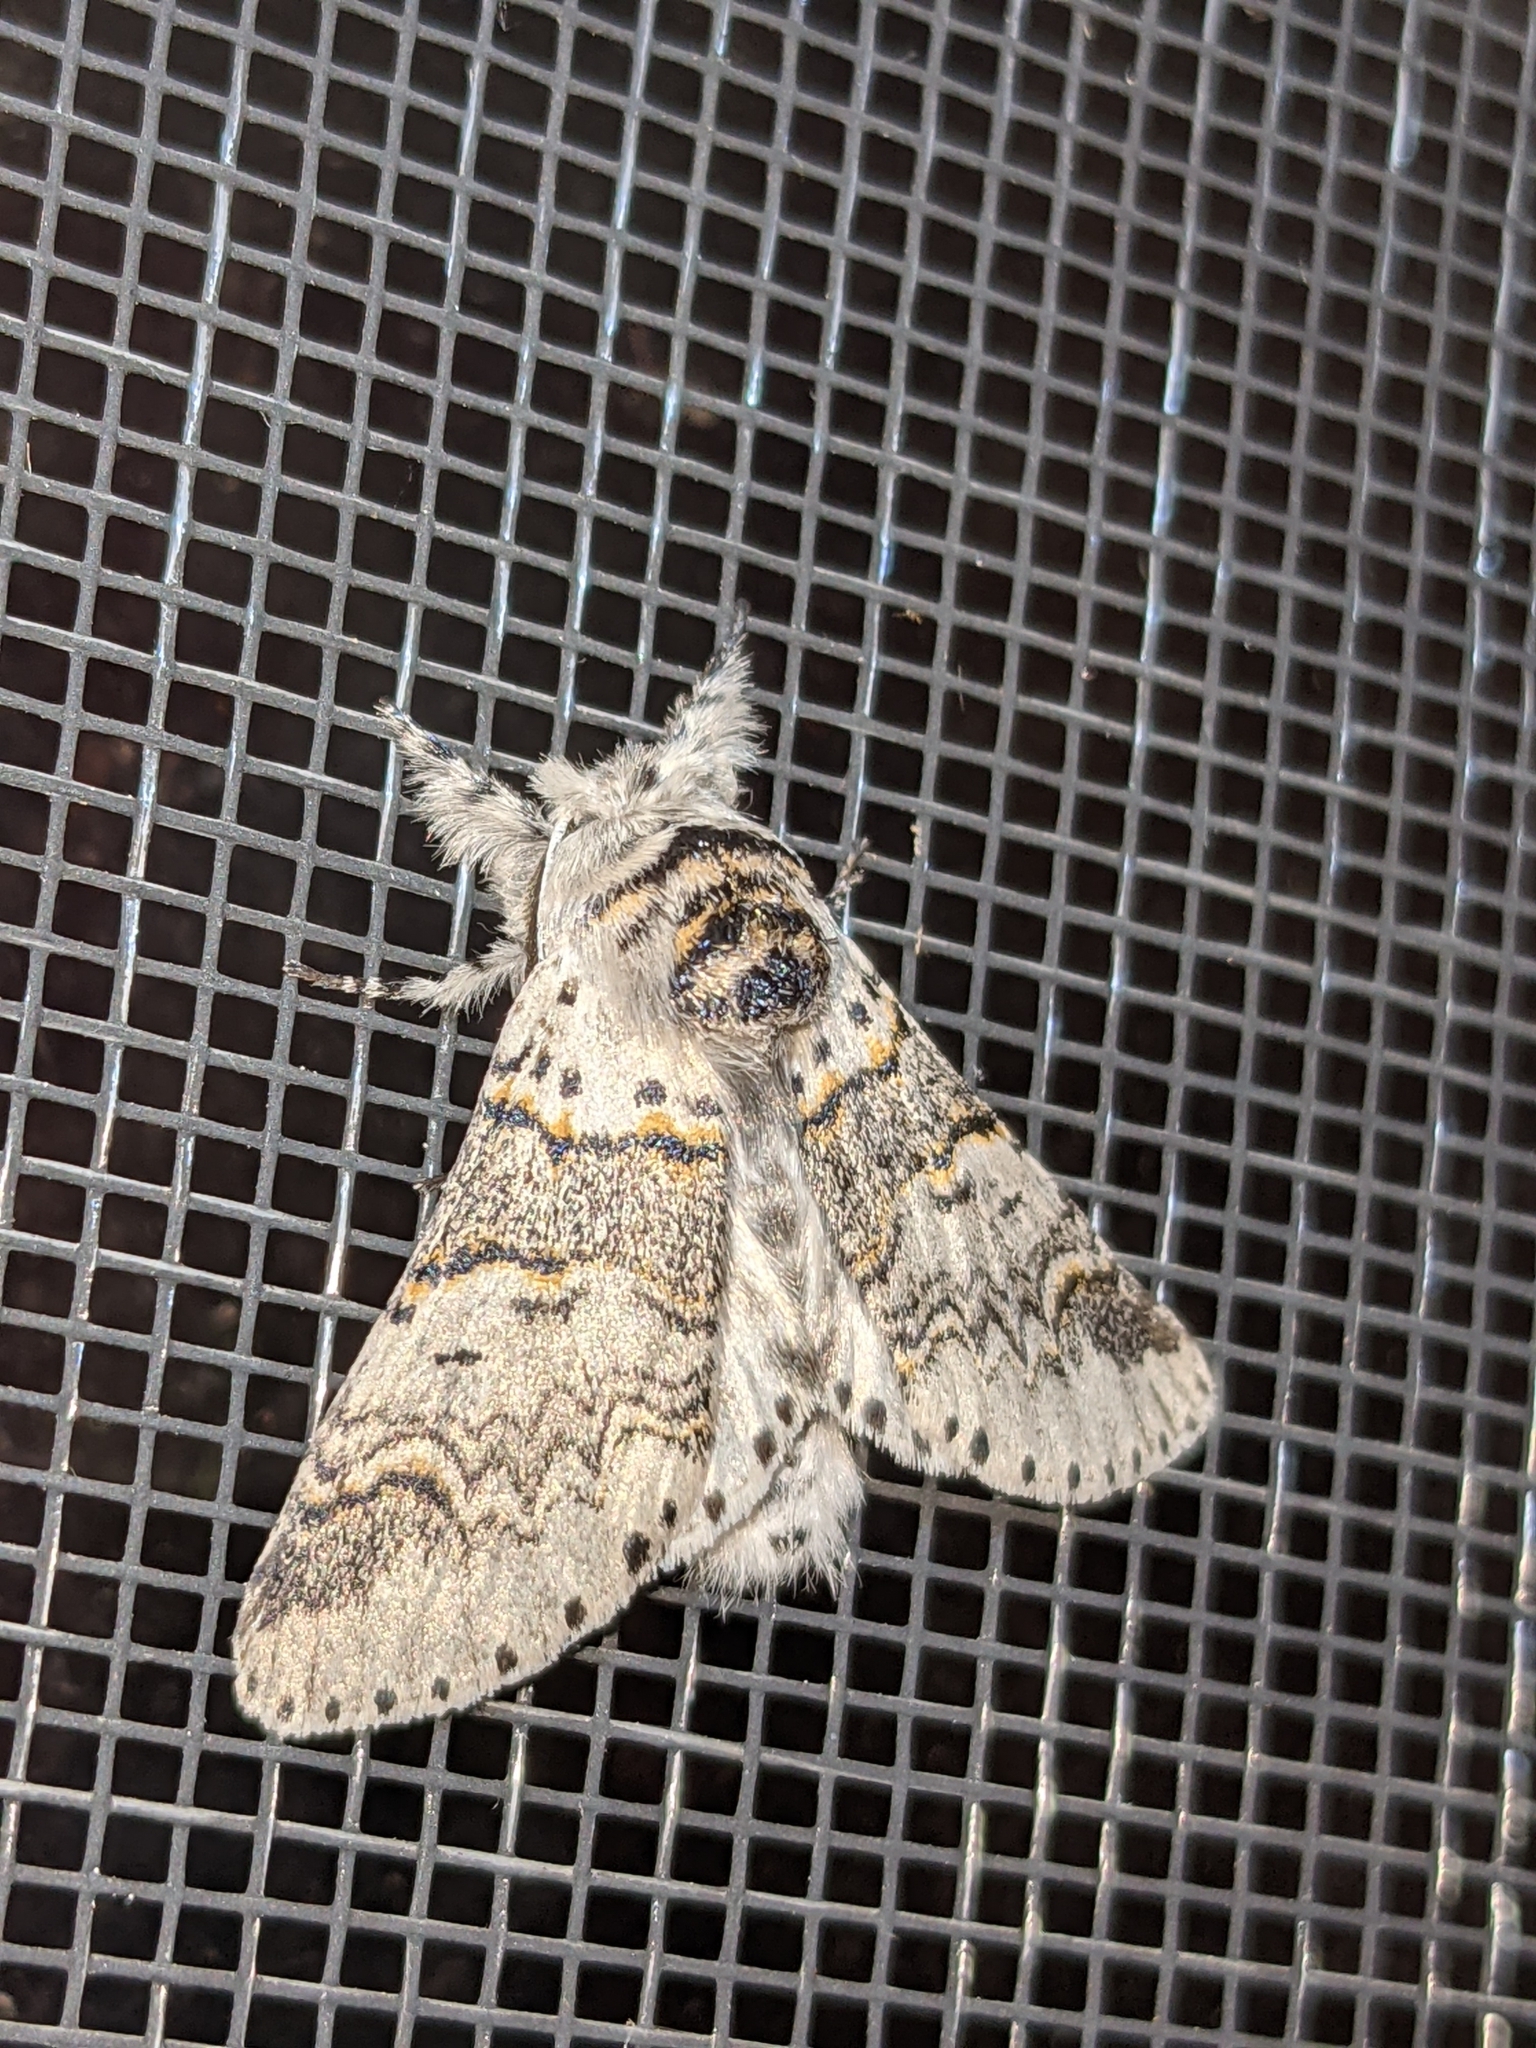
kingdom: Animalia
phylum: Arthropoda
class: Insecta
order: Lepidoptera
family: Notodontidae
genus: Furcula
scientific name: Furcula occidentalis
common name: Western furcula moth
